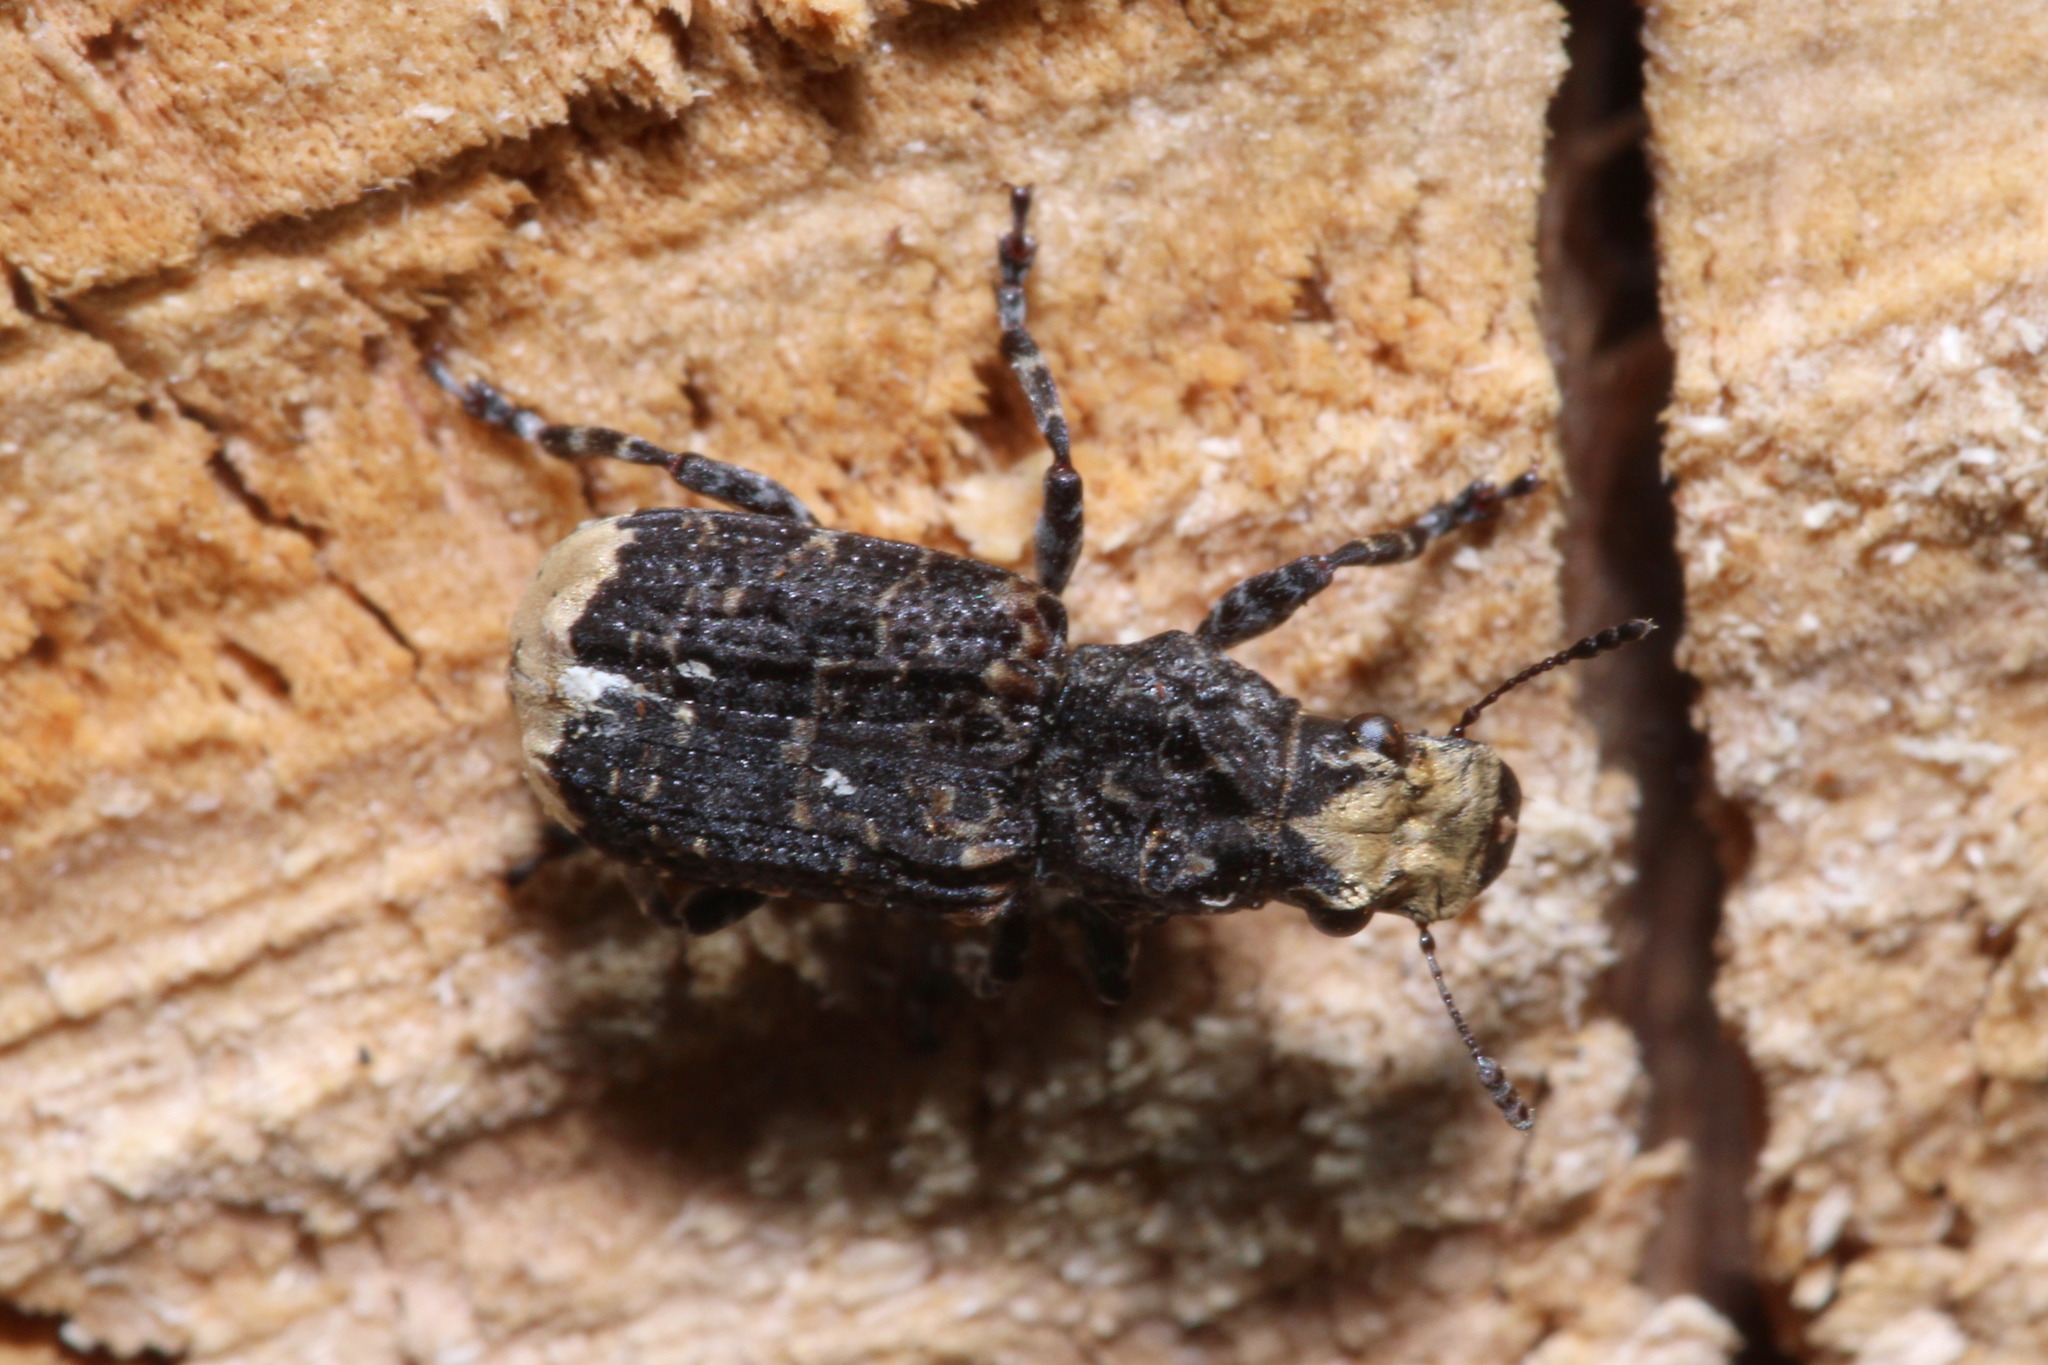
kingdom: Animalia
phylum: Arthropoda
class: Insecta
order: Coleoptera
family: Anthribidae
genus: Platyrhinus
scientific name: Platyrhinus resinosus
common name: Cramp-ball fungus weevil
